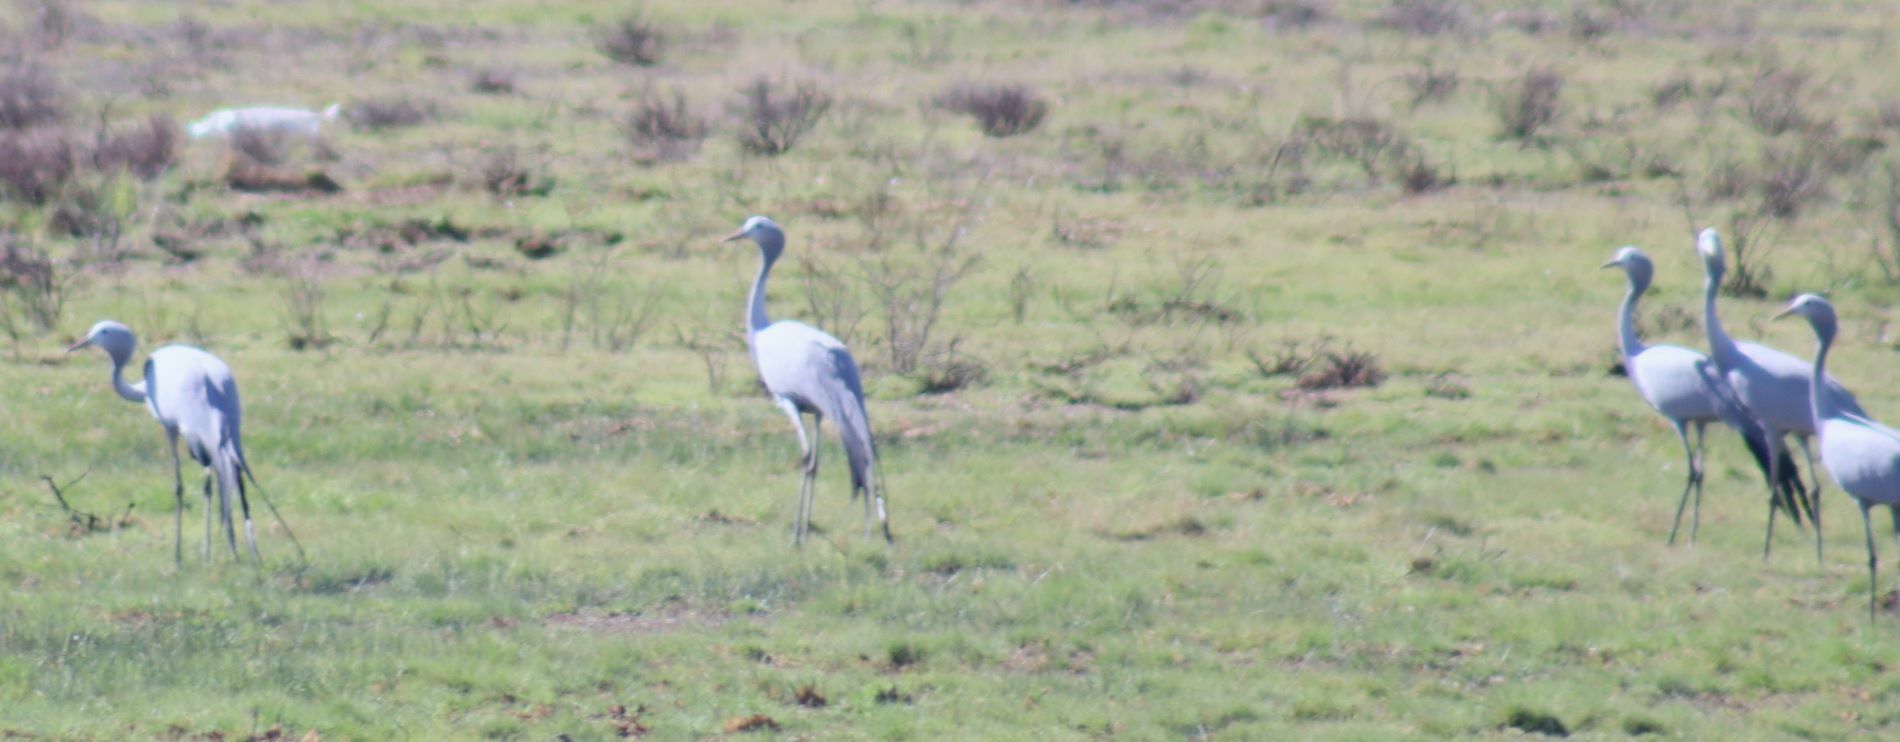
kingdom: Animalia
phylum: Chordata
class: Aves
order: Gruiformes
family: Gruidae
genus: Anthropoides
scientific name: Anthropoides paradiseus
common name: Blue crane
